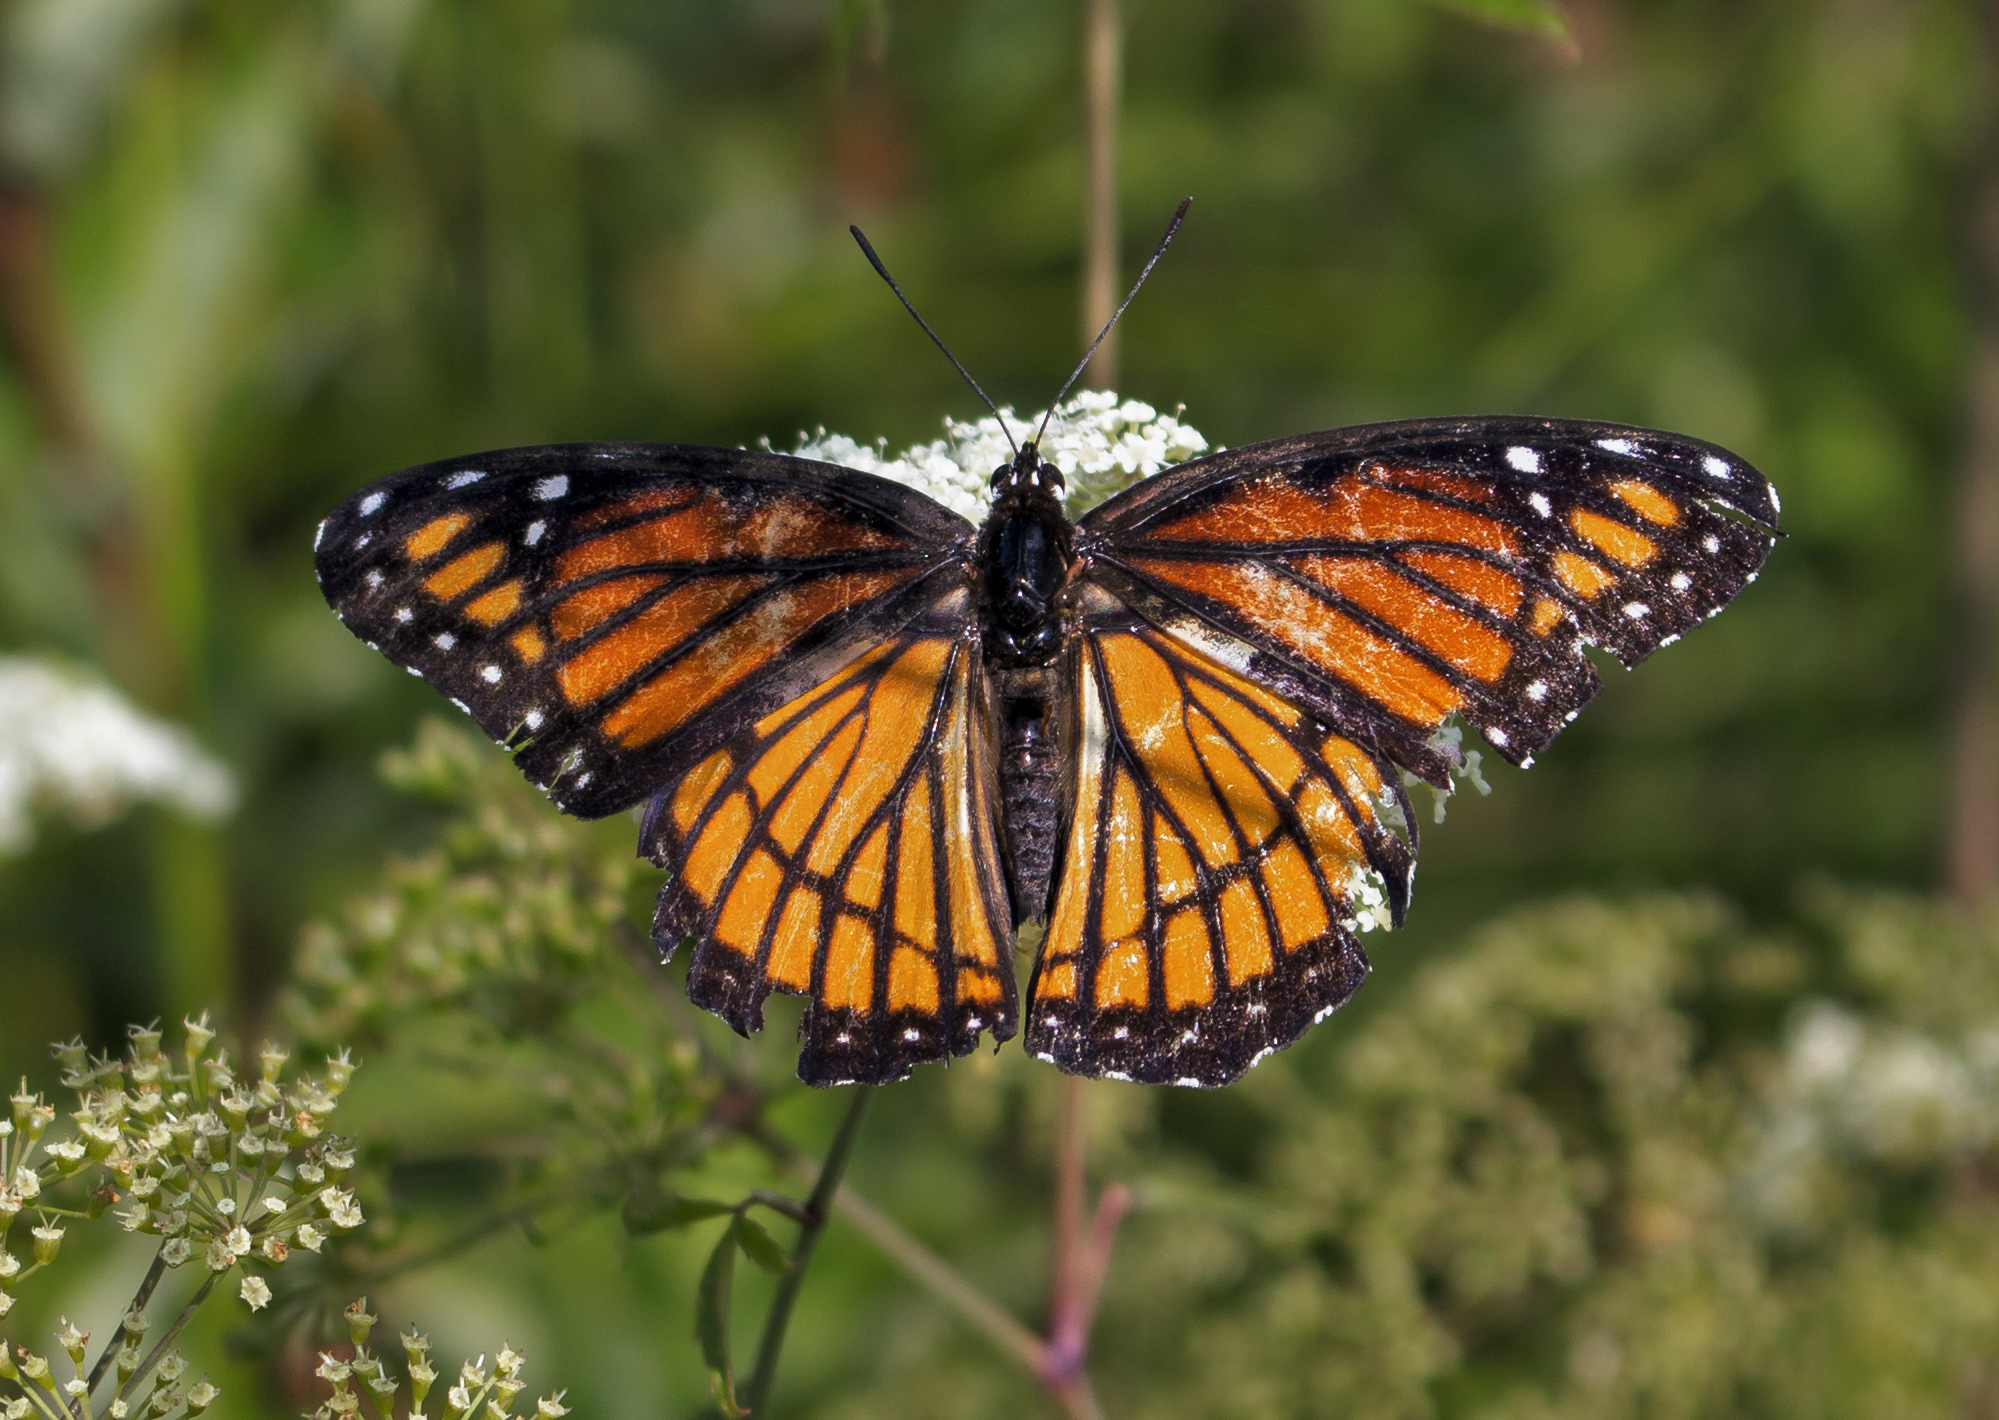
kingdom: Animalia
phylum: Arthropoda
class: Insecta
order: Lepidoptera
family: Nymphalidae
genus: Limenitis
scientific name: Limenitis archippus
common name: Viceroy
